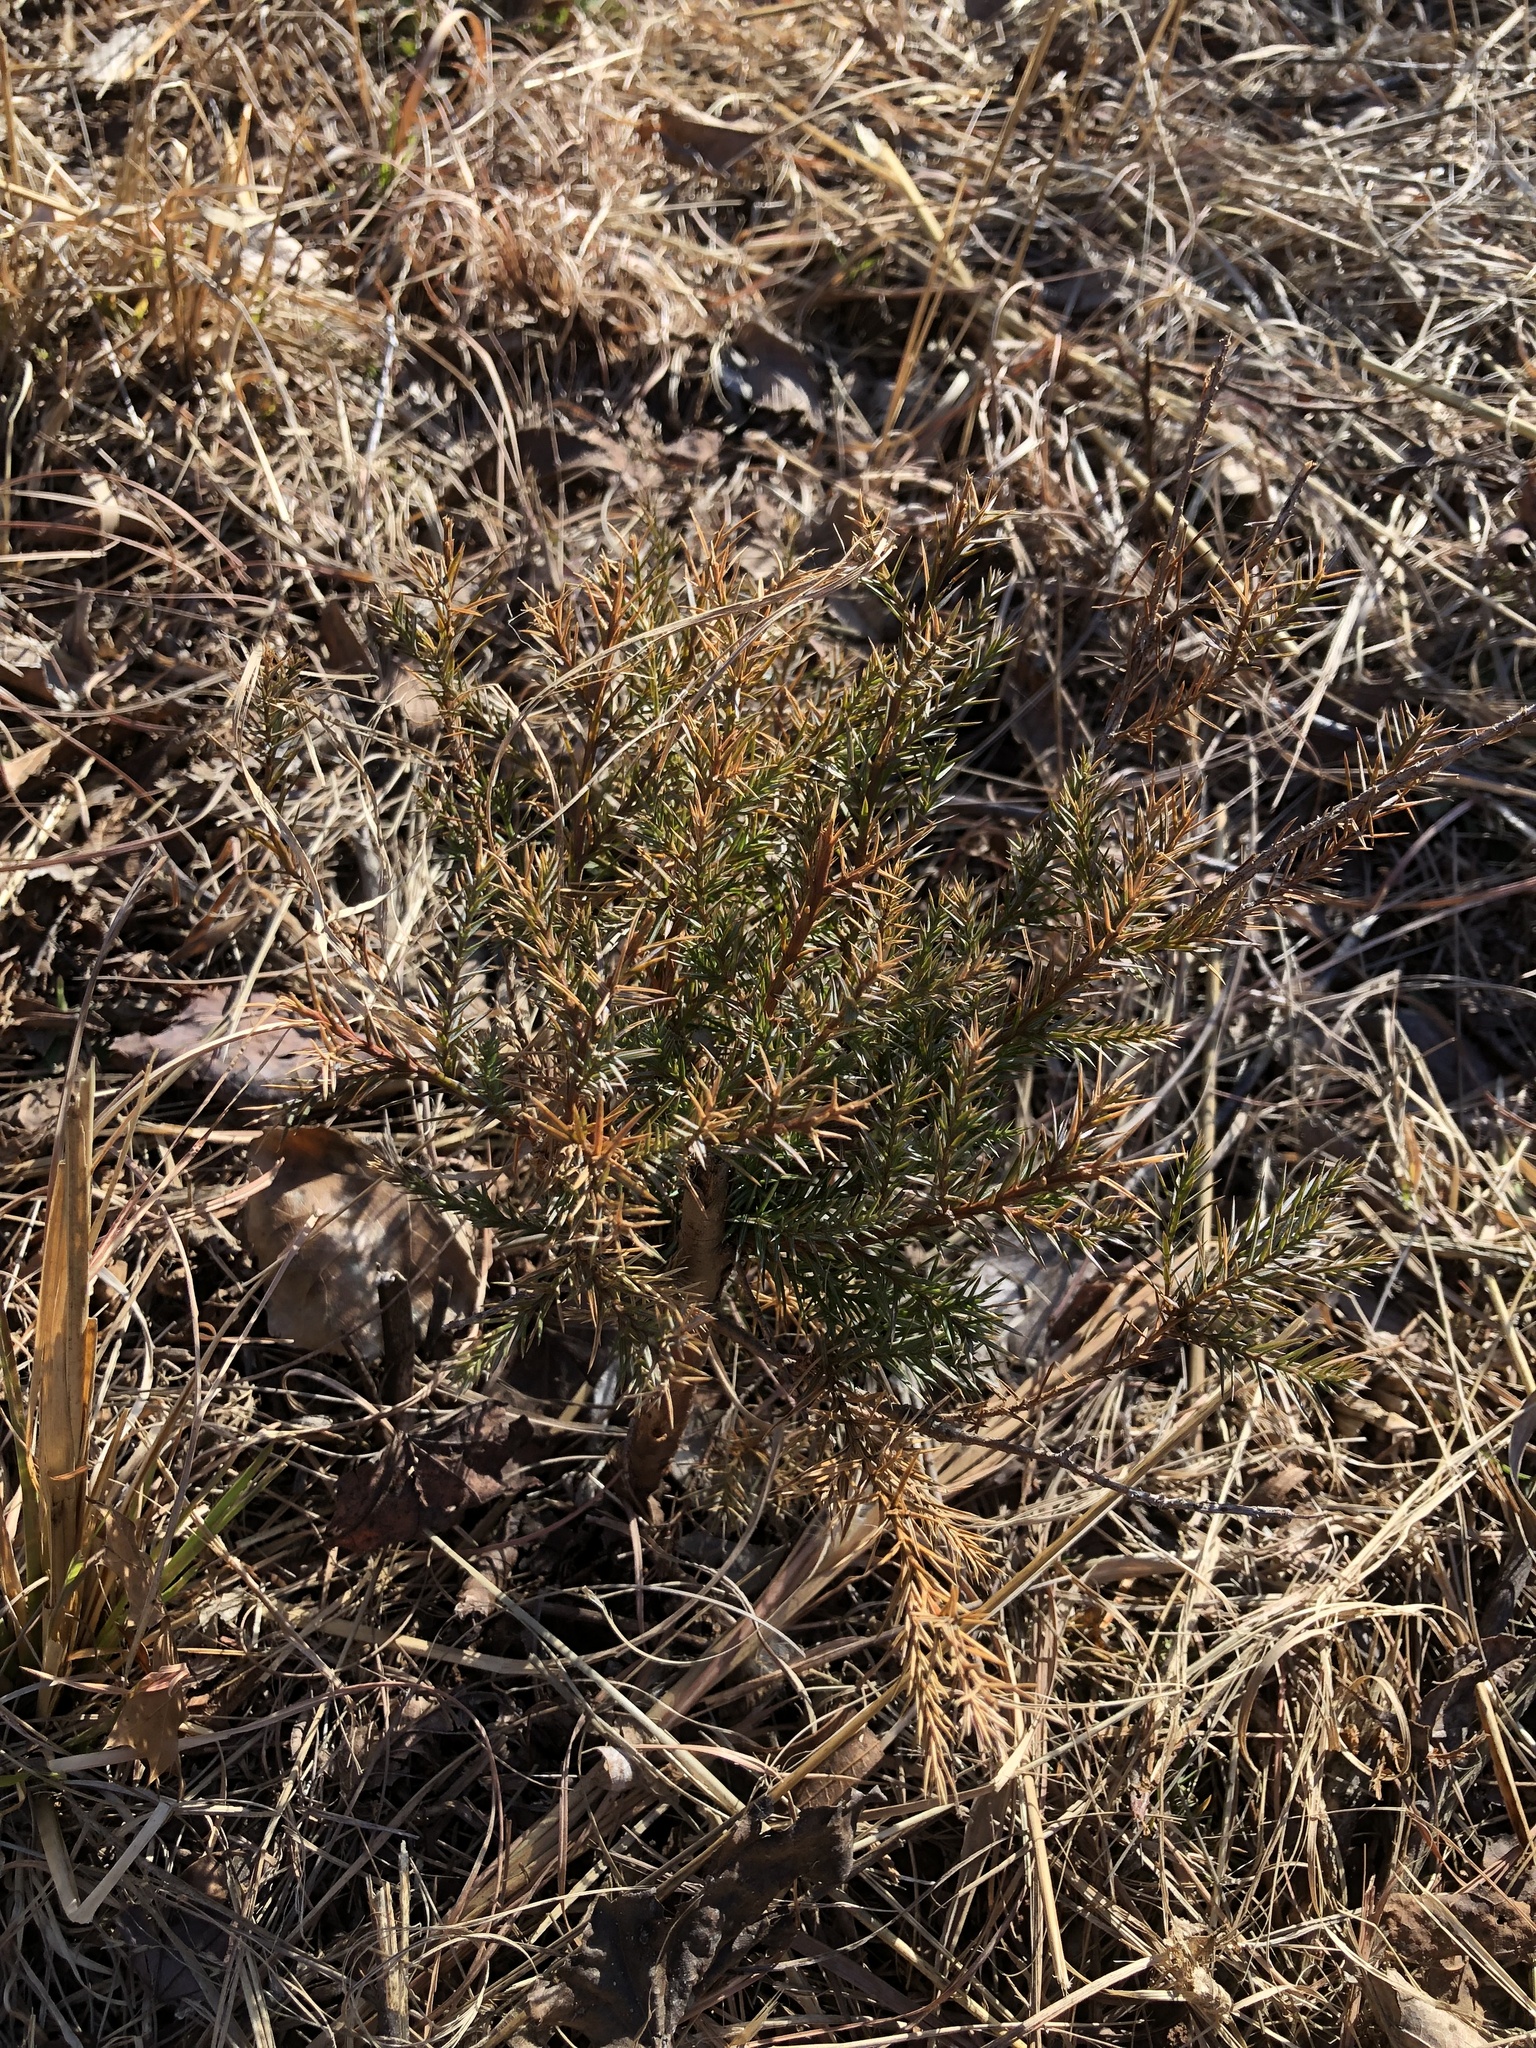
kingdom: Plantae
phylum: Tracheophyta
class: Pinopsida
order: Pinales
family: Cupressaceae
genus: Juniperus
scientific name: Juniperus virginiana
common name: Red juniper
